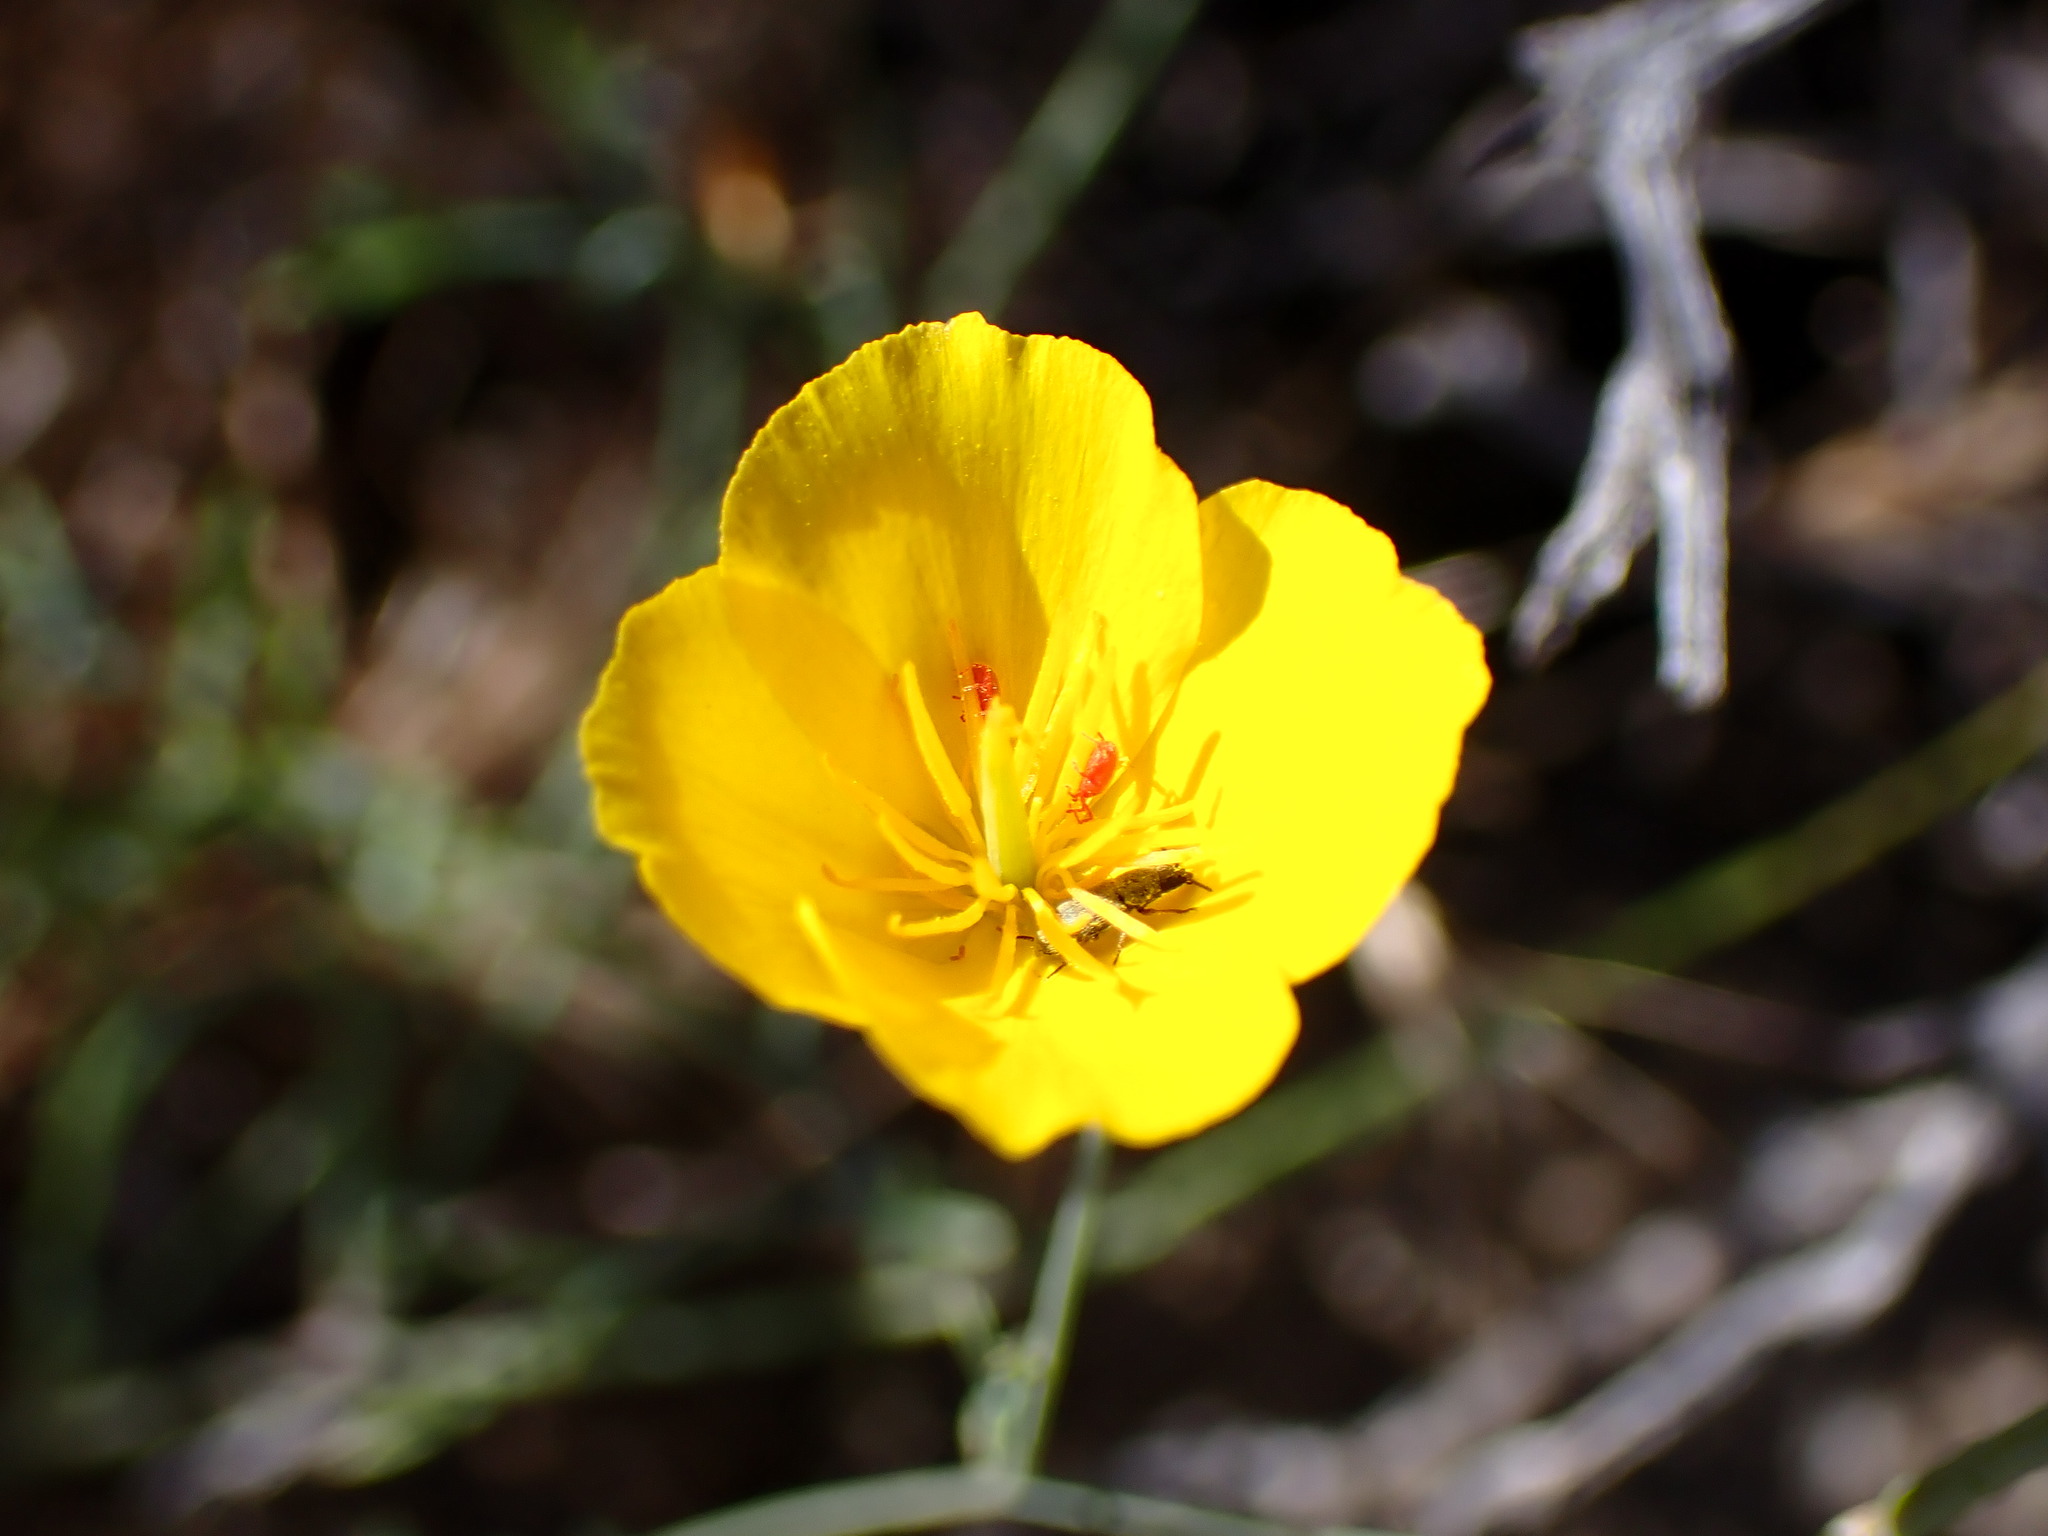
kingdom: Plantae
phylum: Tracheophyta
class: Magnoliopsida
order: Ranunculales
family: Papaveraceae
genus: Eschscholzia
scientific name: Eschscholzia parishii
